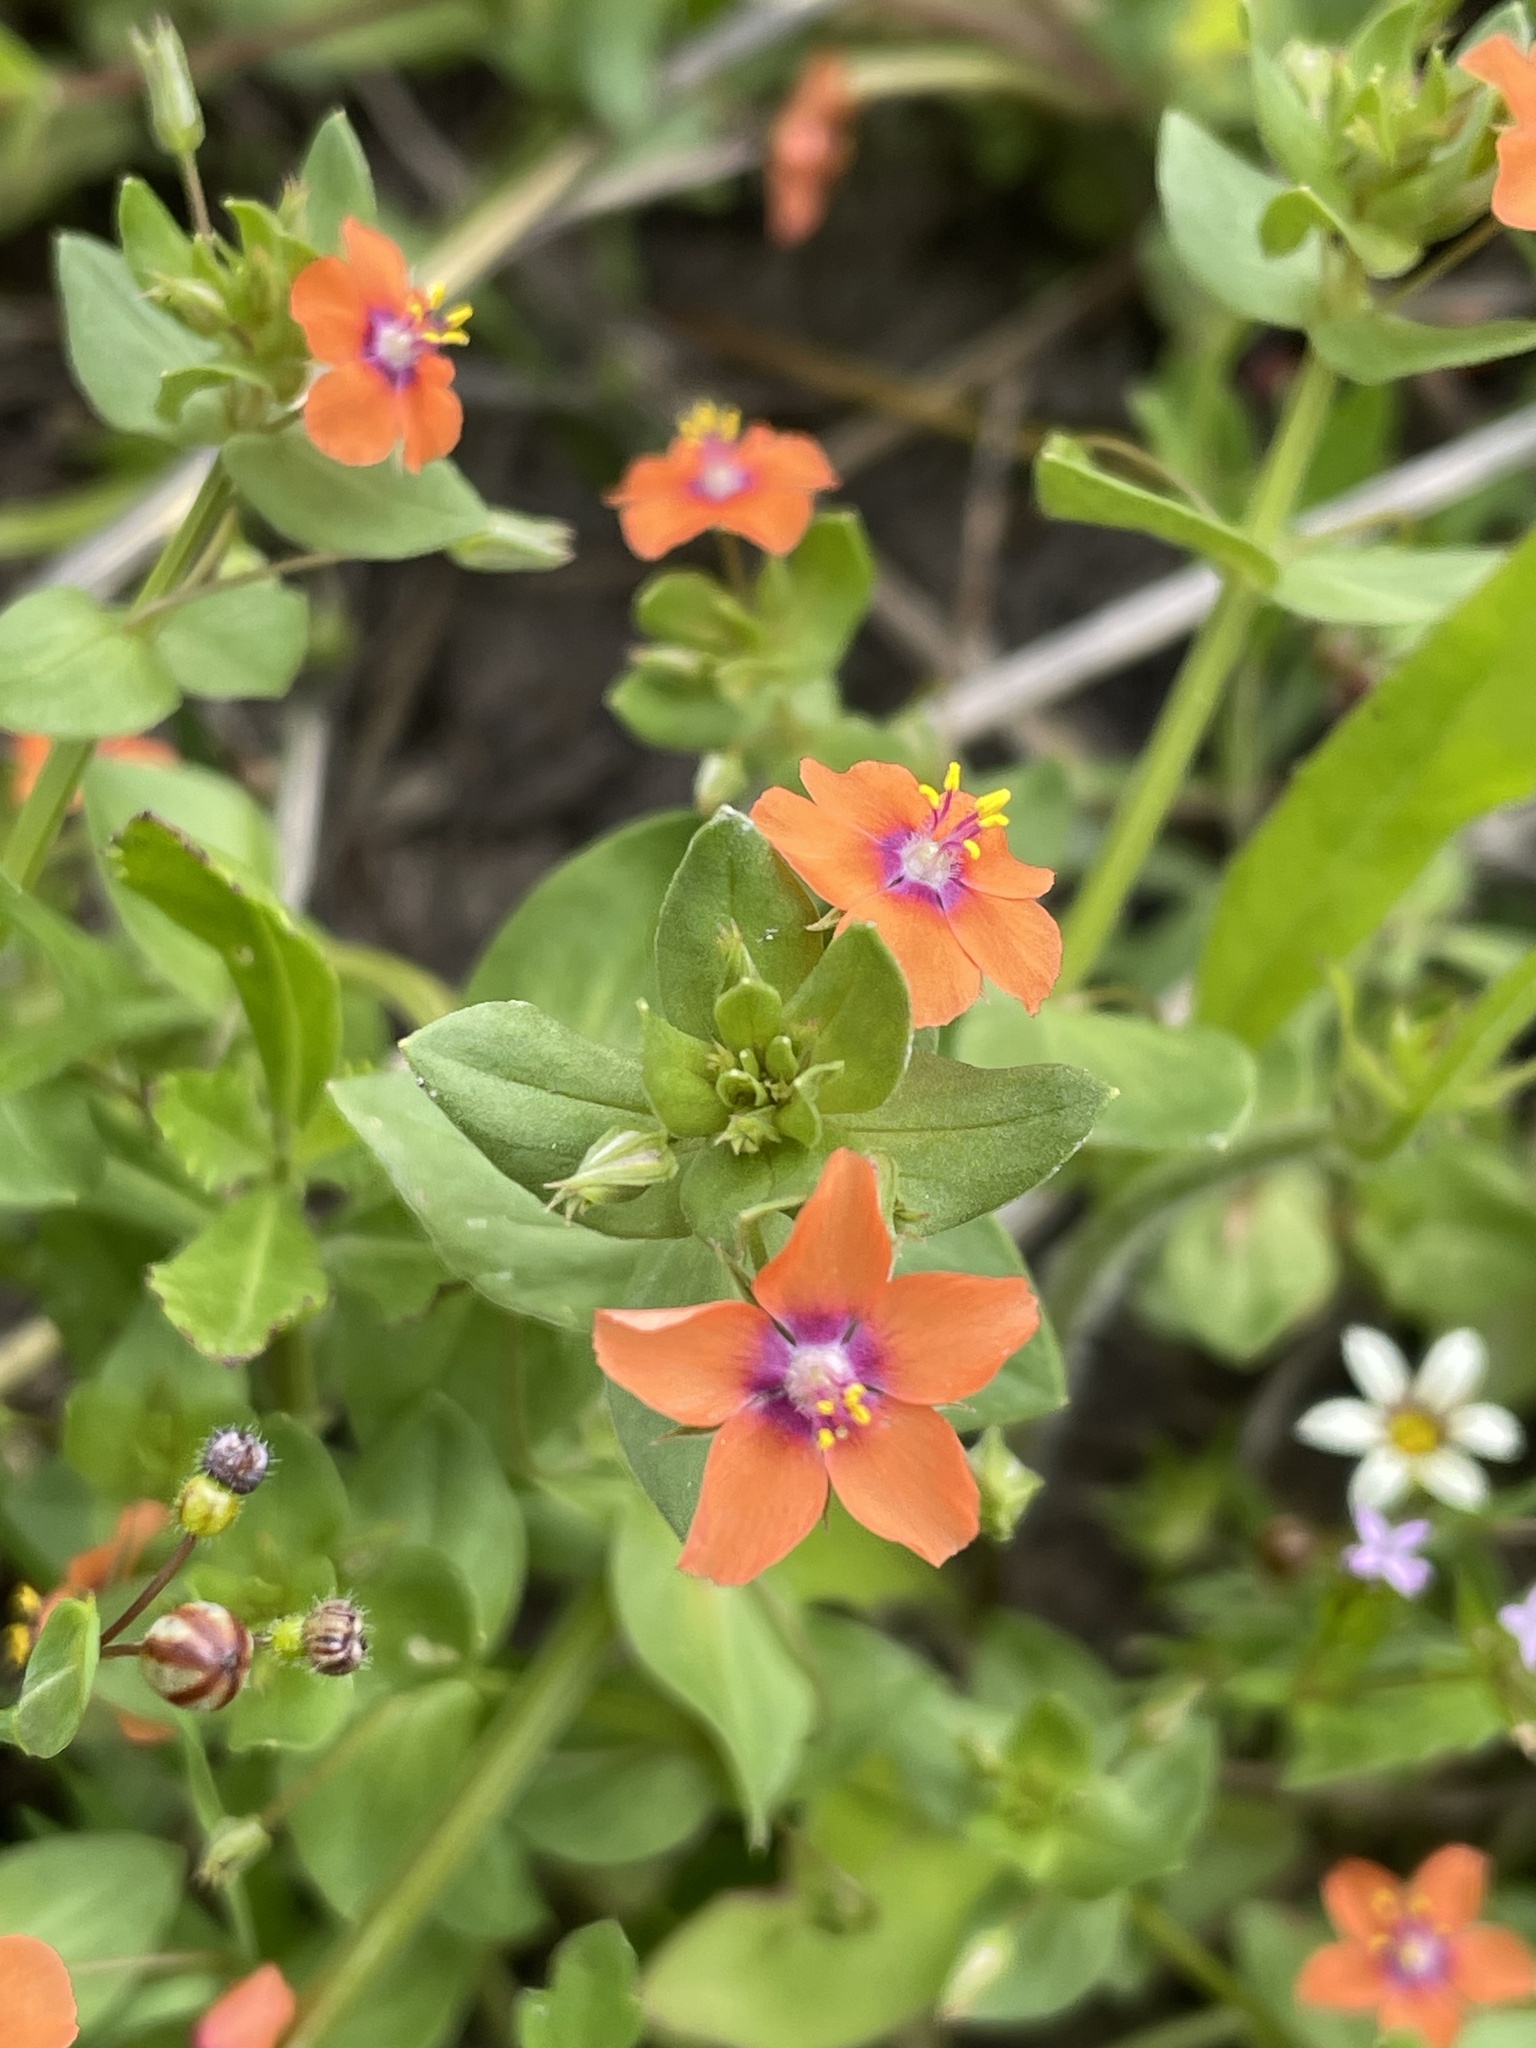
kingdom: Plantae
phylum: Tracheophyta
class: Magnoliopsida
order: Ericales
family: Primulaceae
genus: Lysimachia
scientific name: Lysimachia arvensis
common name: Scarlet pimpernel
